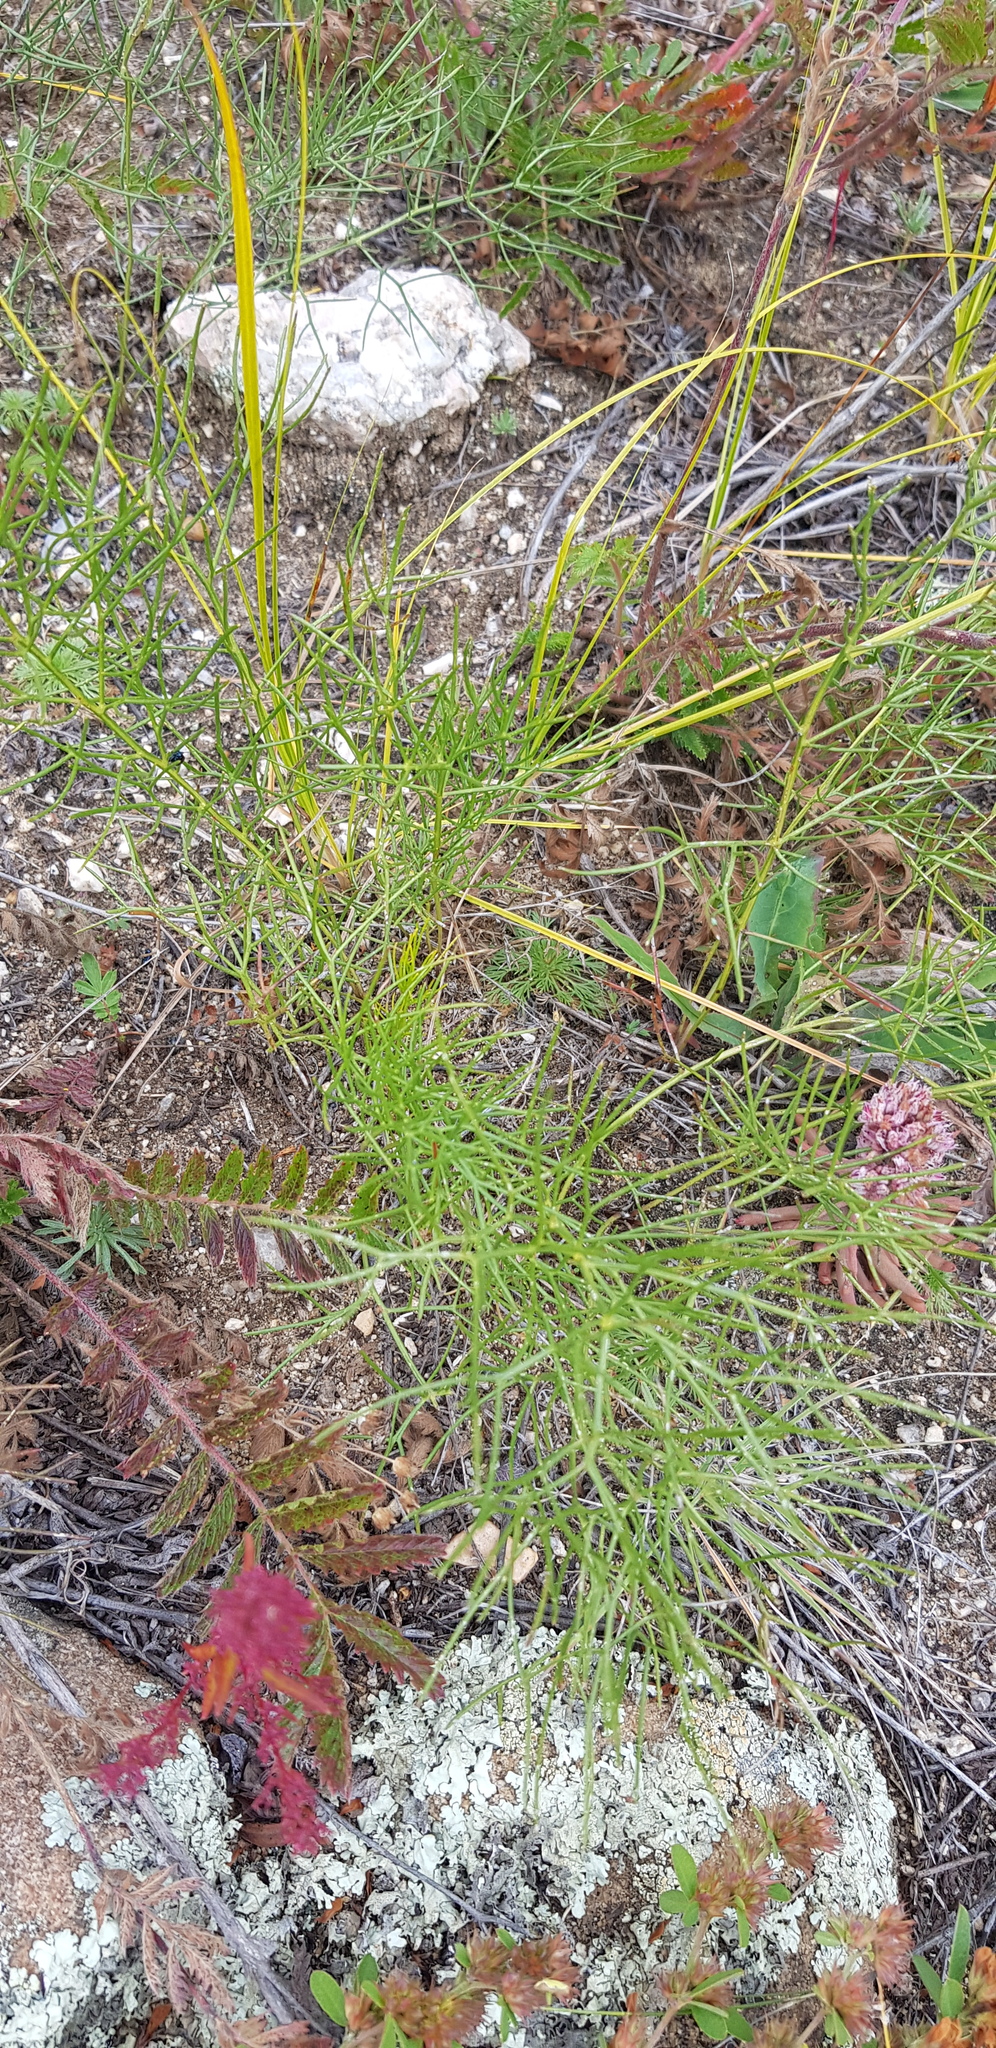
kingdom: Plantae
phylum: Tracheophyta
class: Magnoliopsida
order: Asterales
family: Asteraceae
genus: Filifolium
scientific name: Filifolium sibiricum
